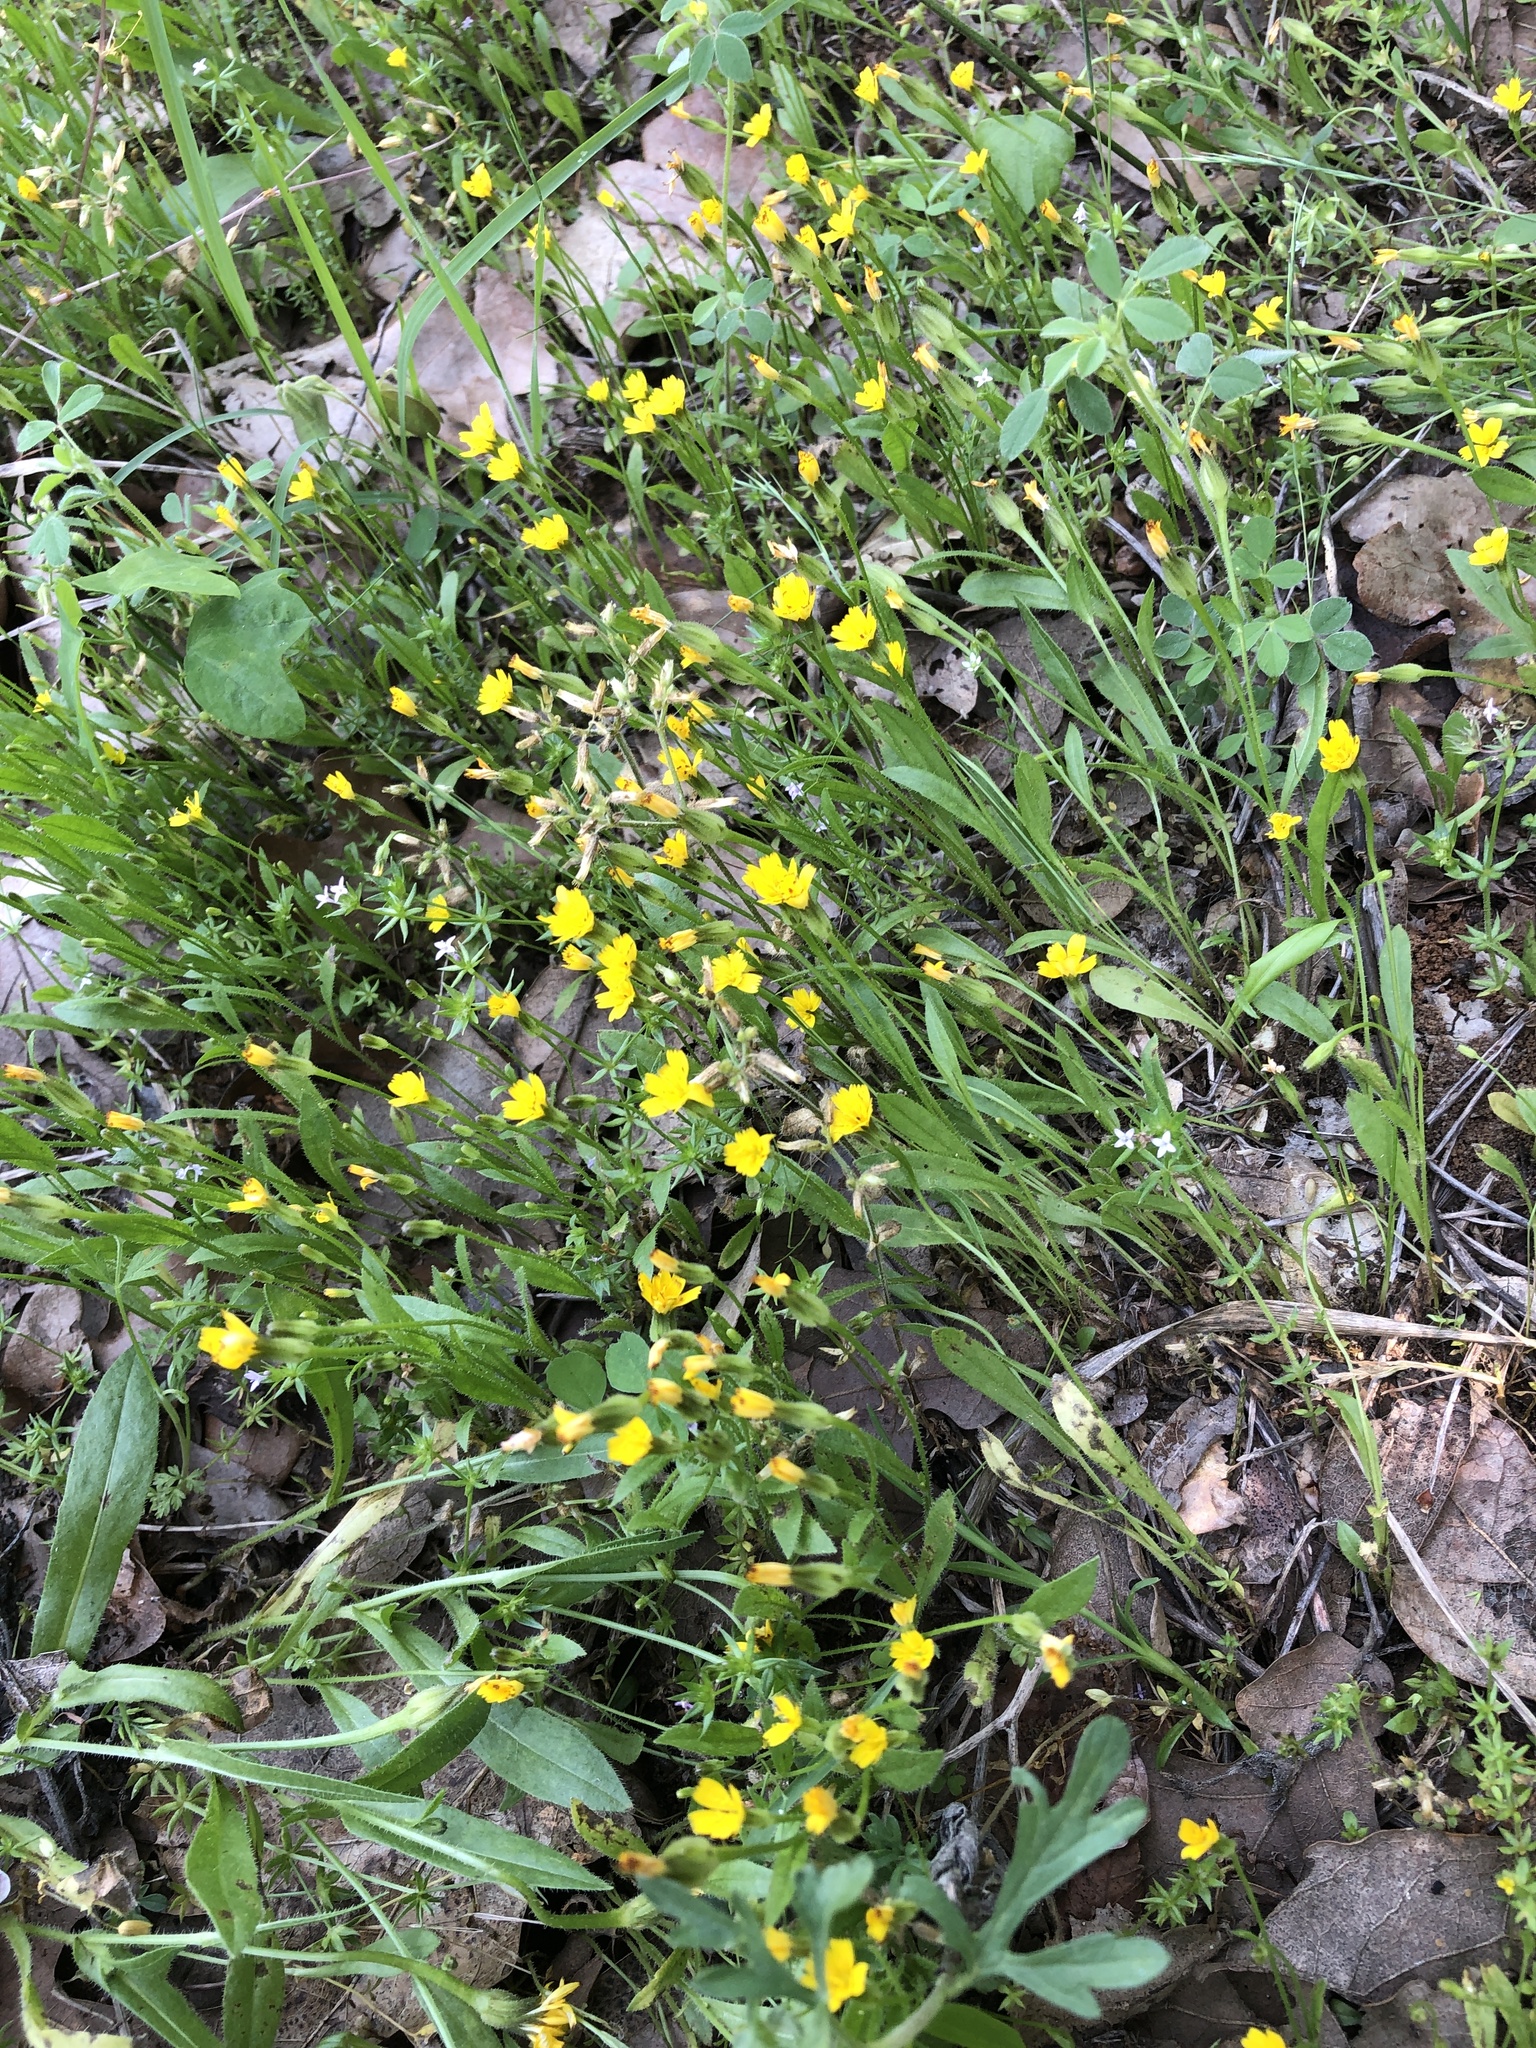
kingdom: Plantae
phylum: Tracheophyta
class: Magnoliopsida
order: Asterales
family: Asteraceae
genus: Hedypnois
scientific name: Hedypnois rhagadioloides
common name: Cretan weed
